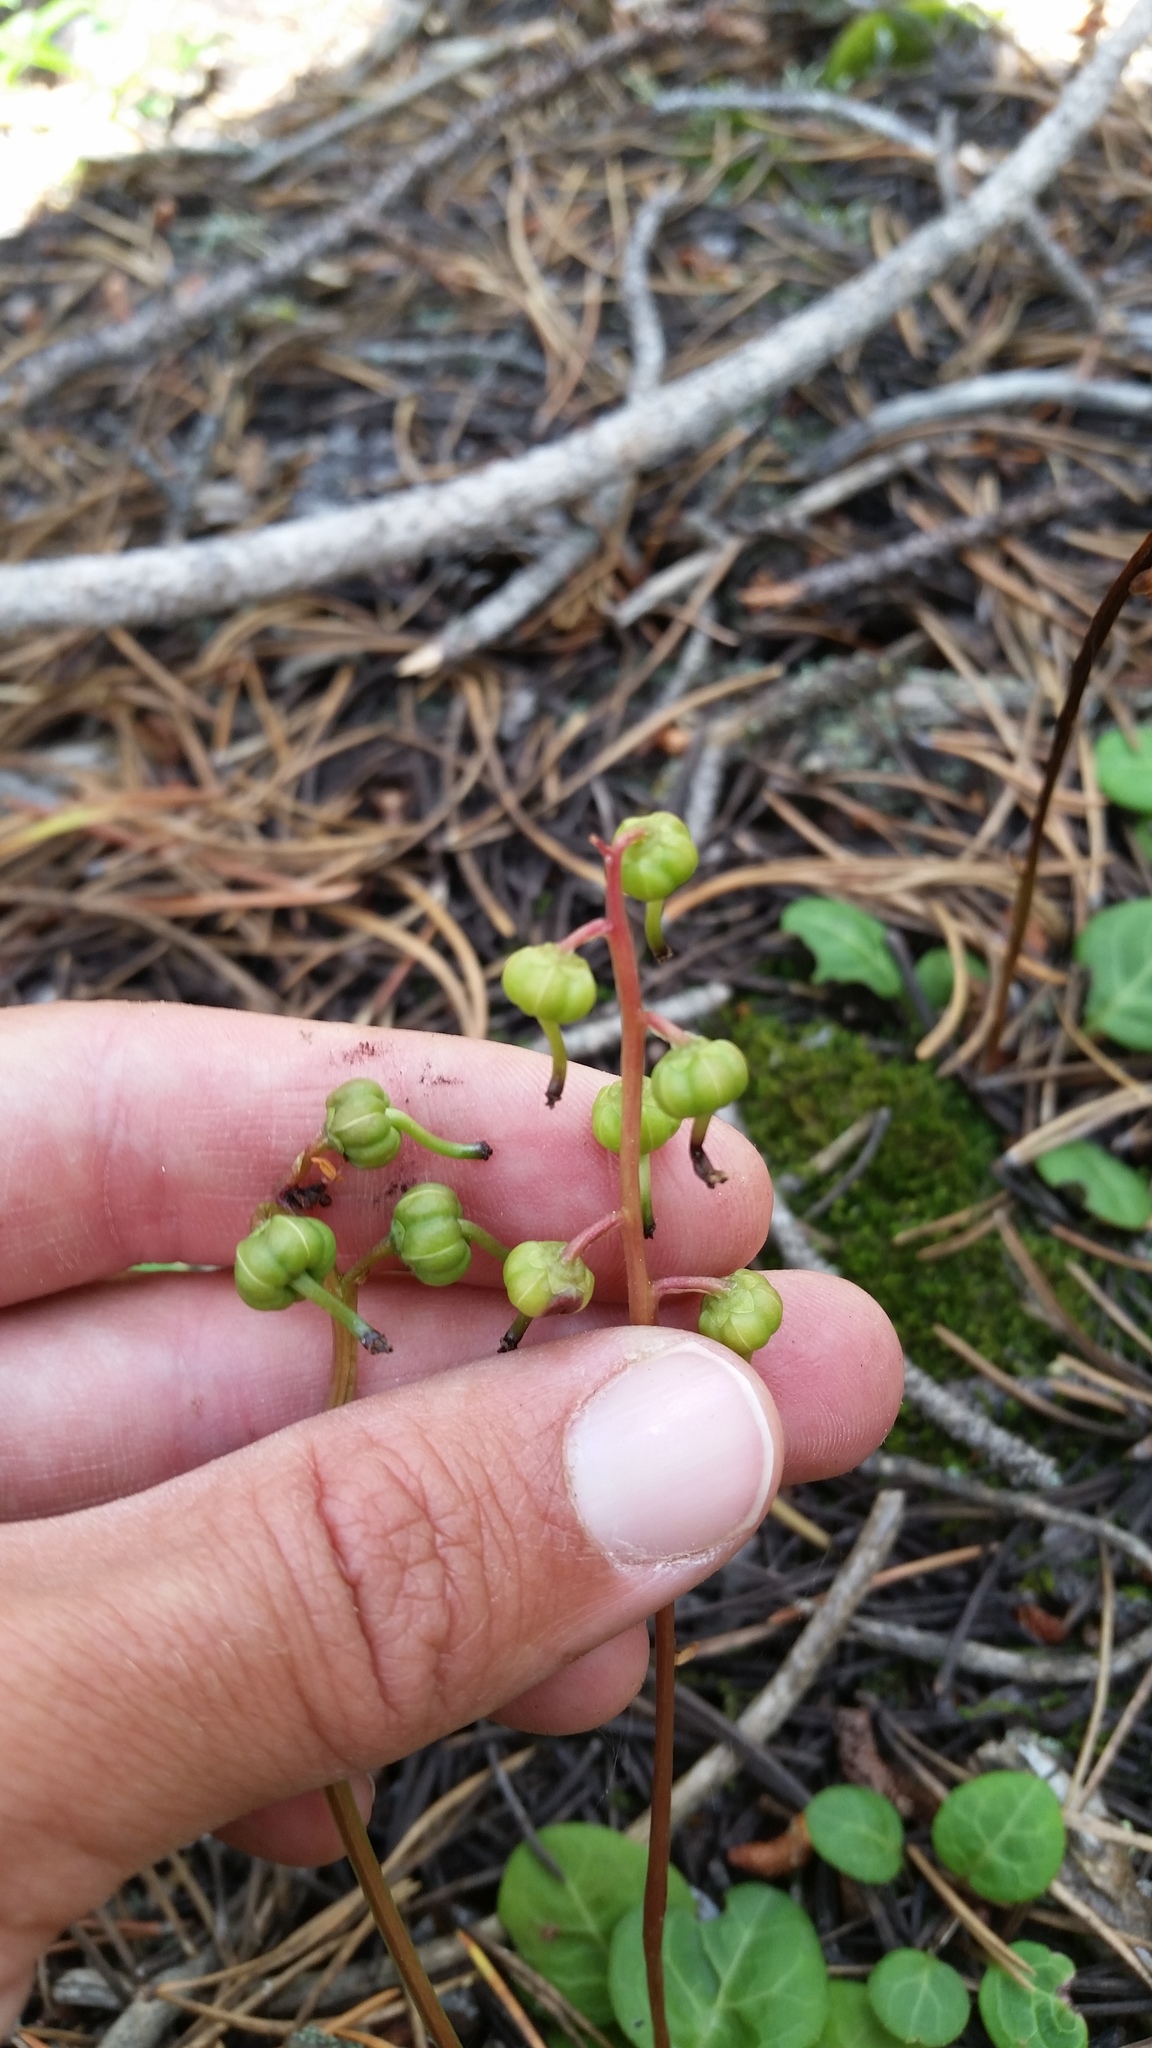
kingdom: Plantae
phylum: Tracheophyta
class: Magnoliopsida
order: Ericales
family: Ericaceae
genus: Pyrola
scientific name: Pyrola chlorantha
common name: Green wintergreen
